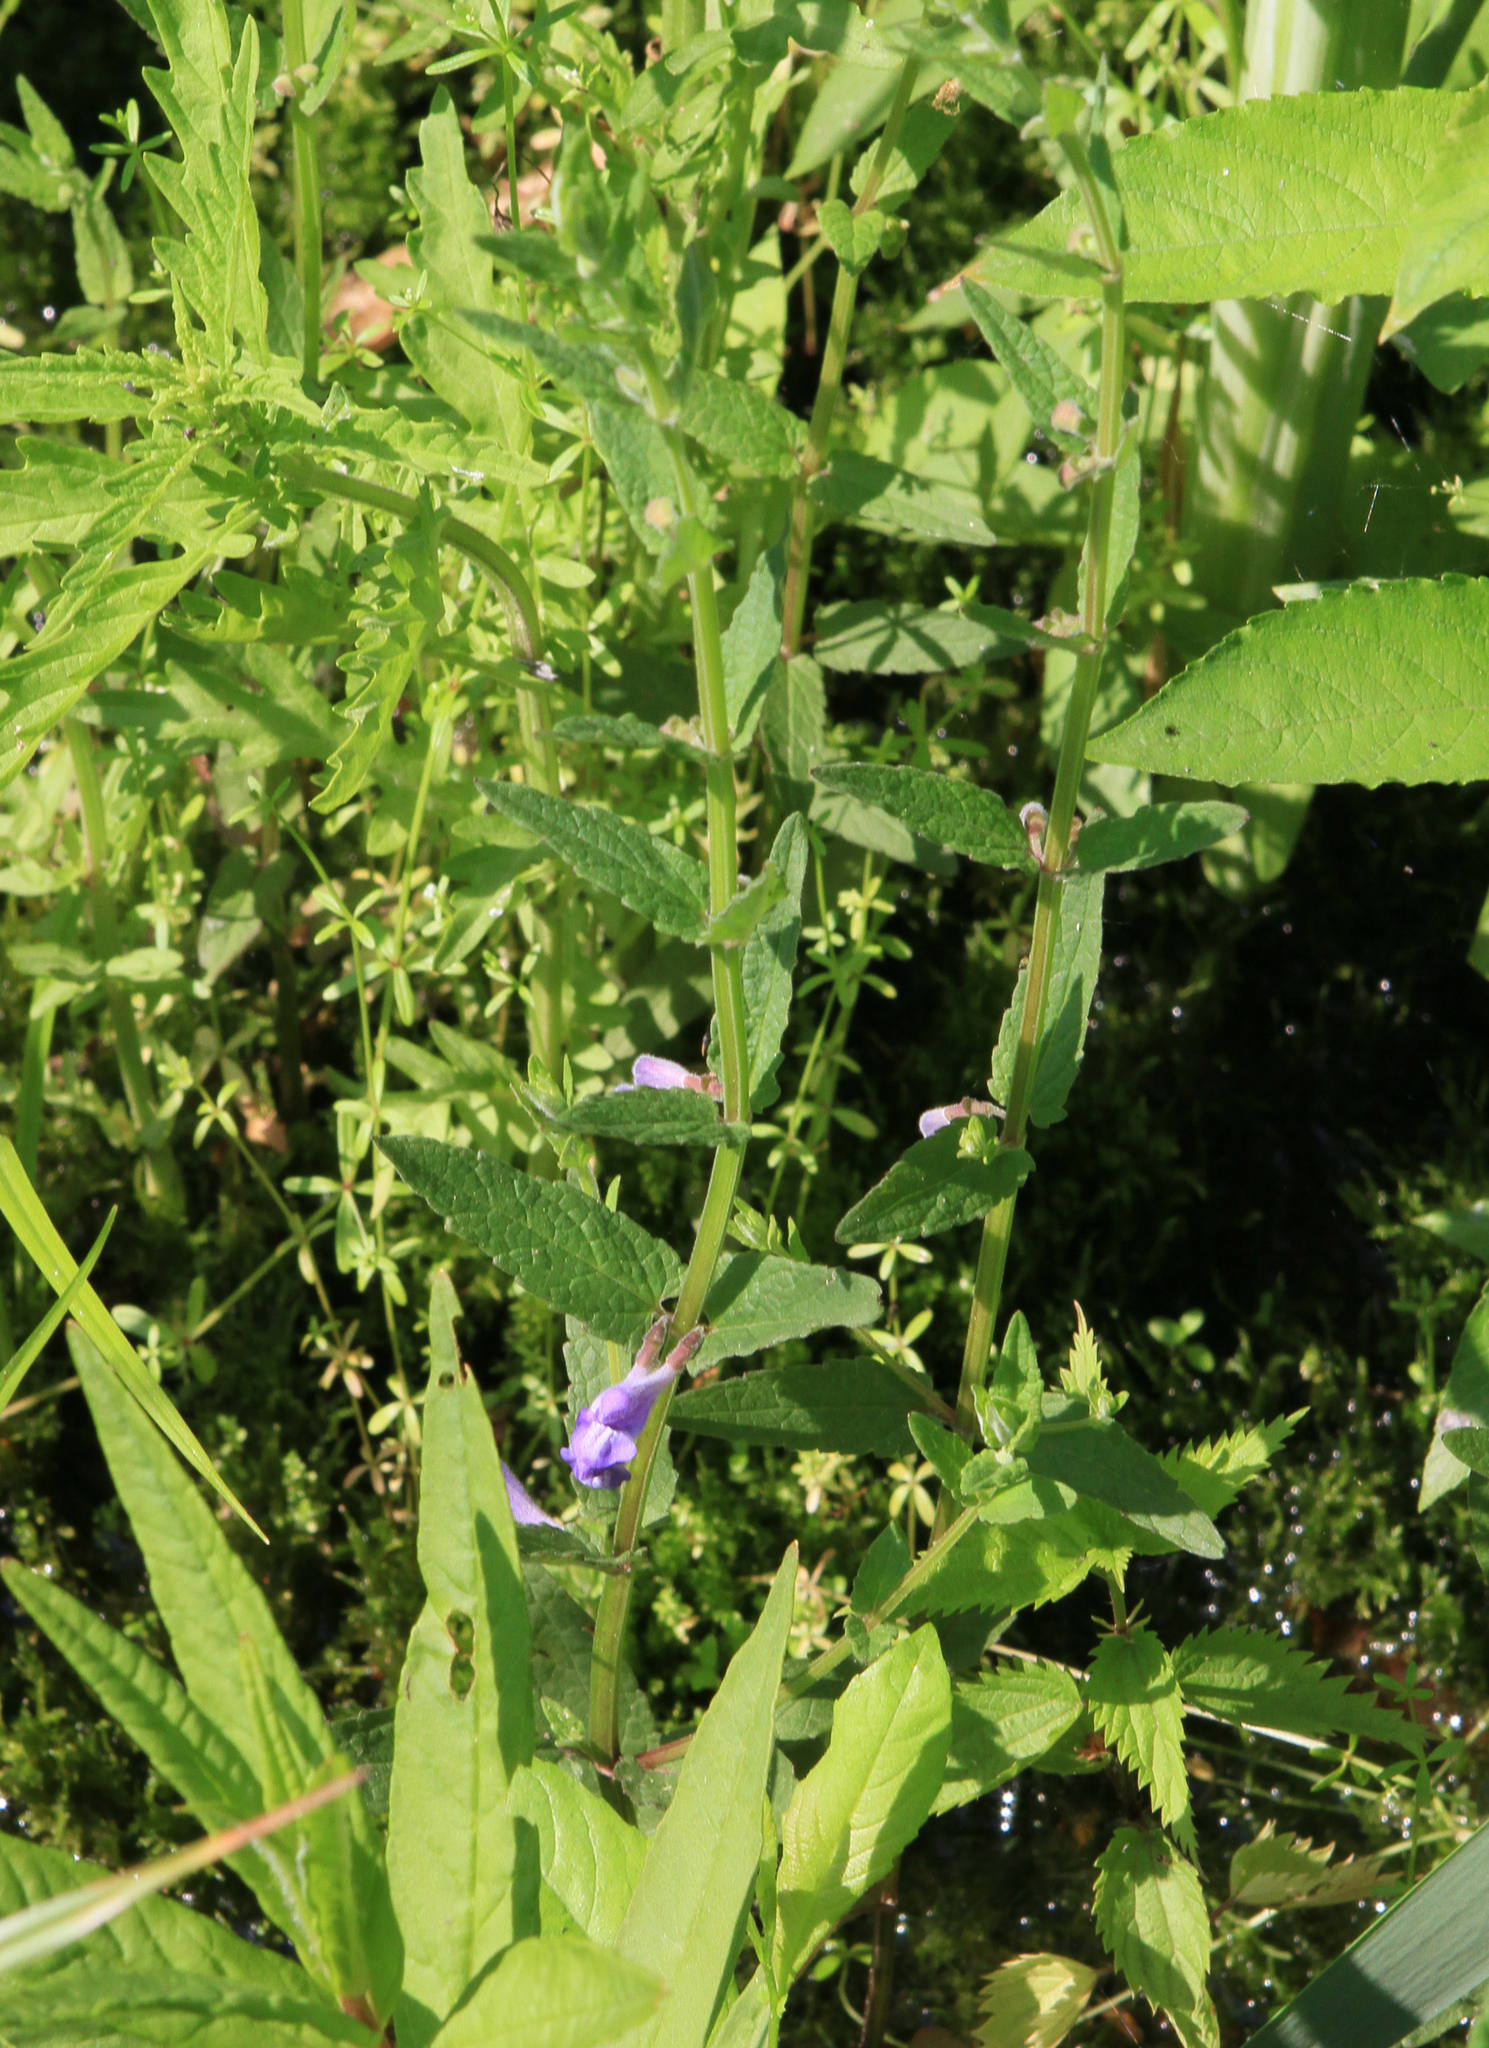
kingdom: Plantae
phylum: Tracheophyta
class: Magnoliopsida
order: Lamiales
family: Lamiaceae
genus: Scutellaria
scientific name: Scutellaria galericulata
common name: Skullcap
